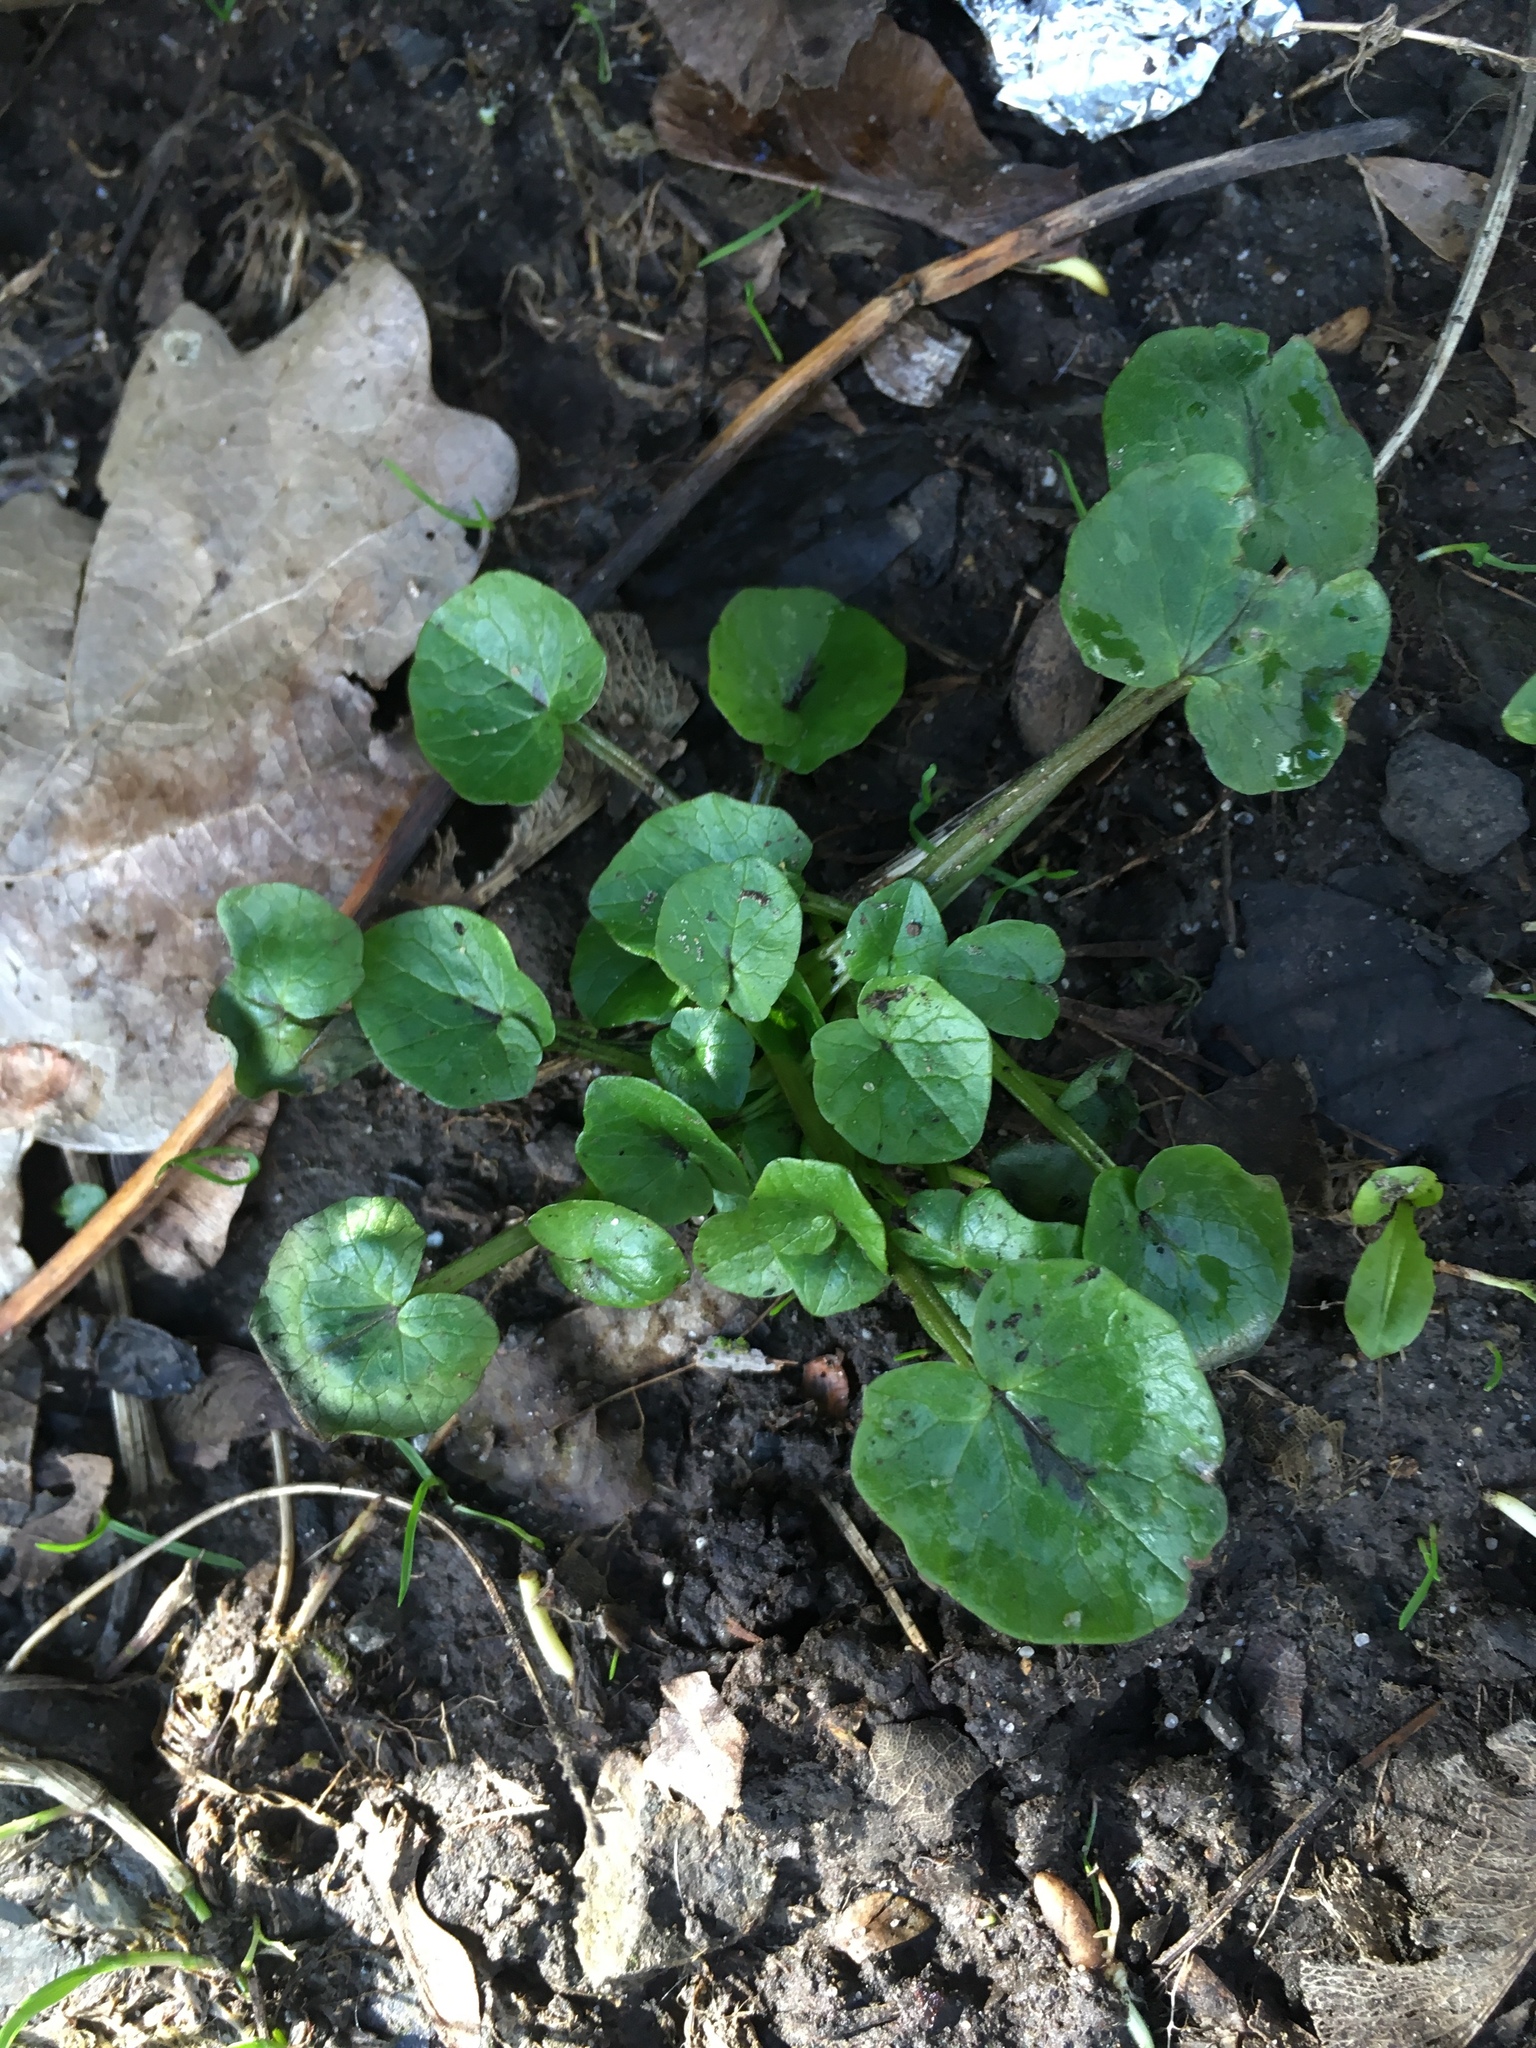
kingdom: Plantae
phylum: Tracheophyta
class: Magnoliopsida
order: Ranunculales
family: Ranunculaceae
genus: Ficaria
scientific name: Ficaria verna
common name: Lesser celandine
